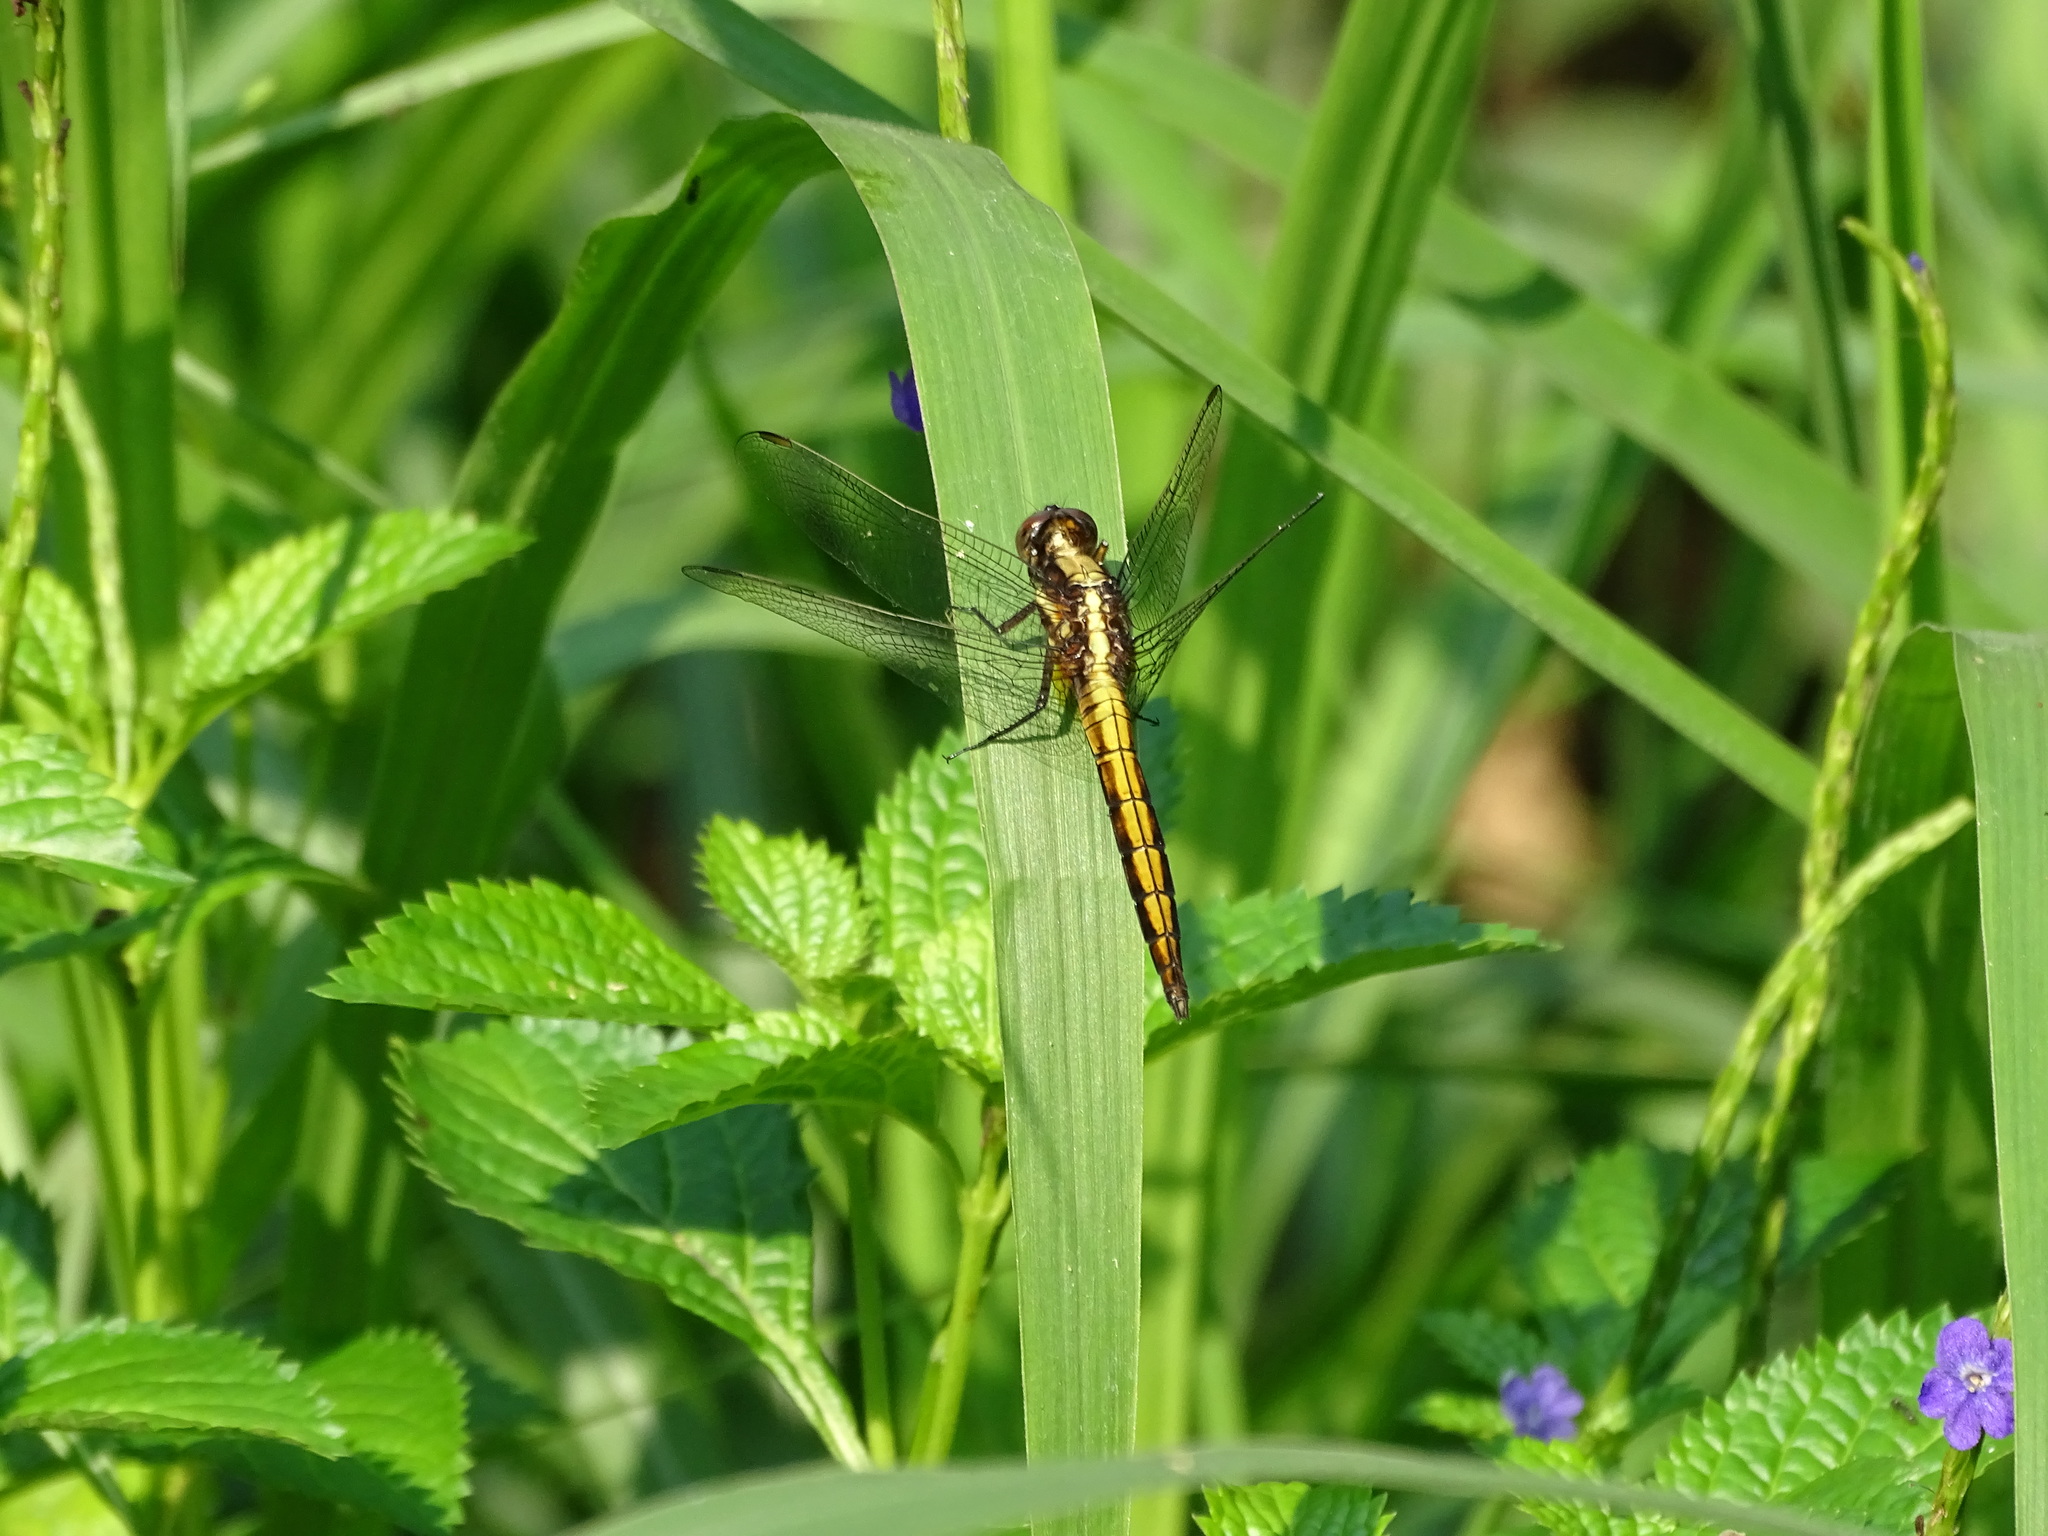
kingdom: Animalia
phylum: Arthropoda
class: Insecta
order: Odonata
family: Libellulidae
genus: Orthetrum
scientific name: Orthetrum glaucum
